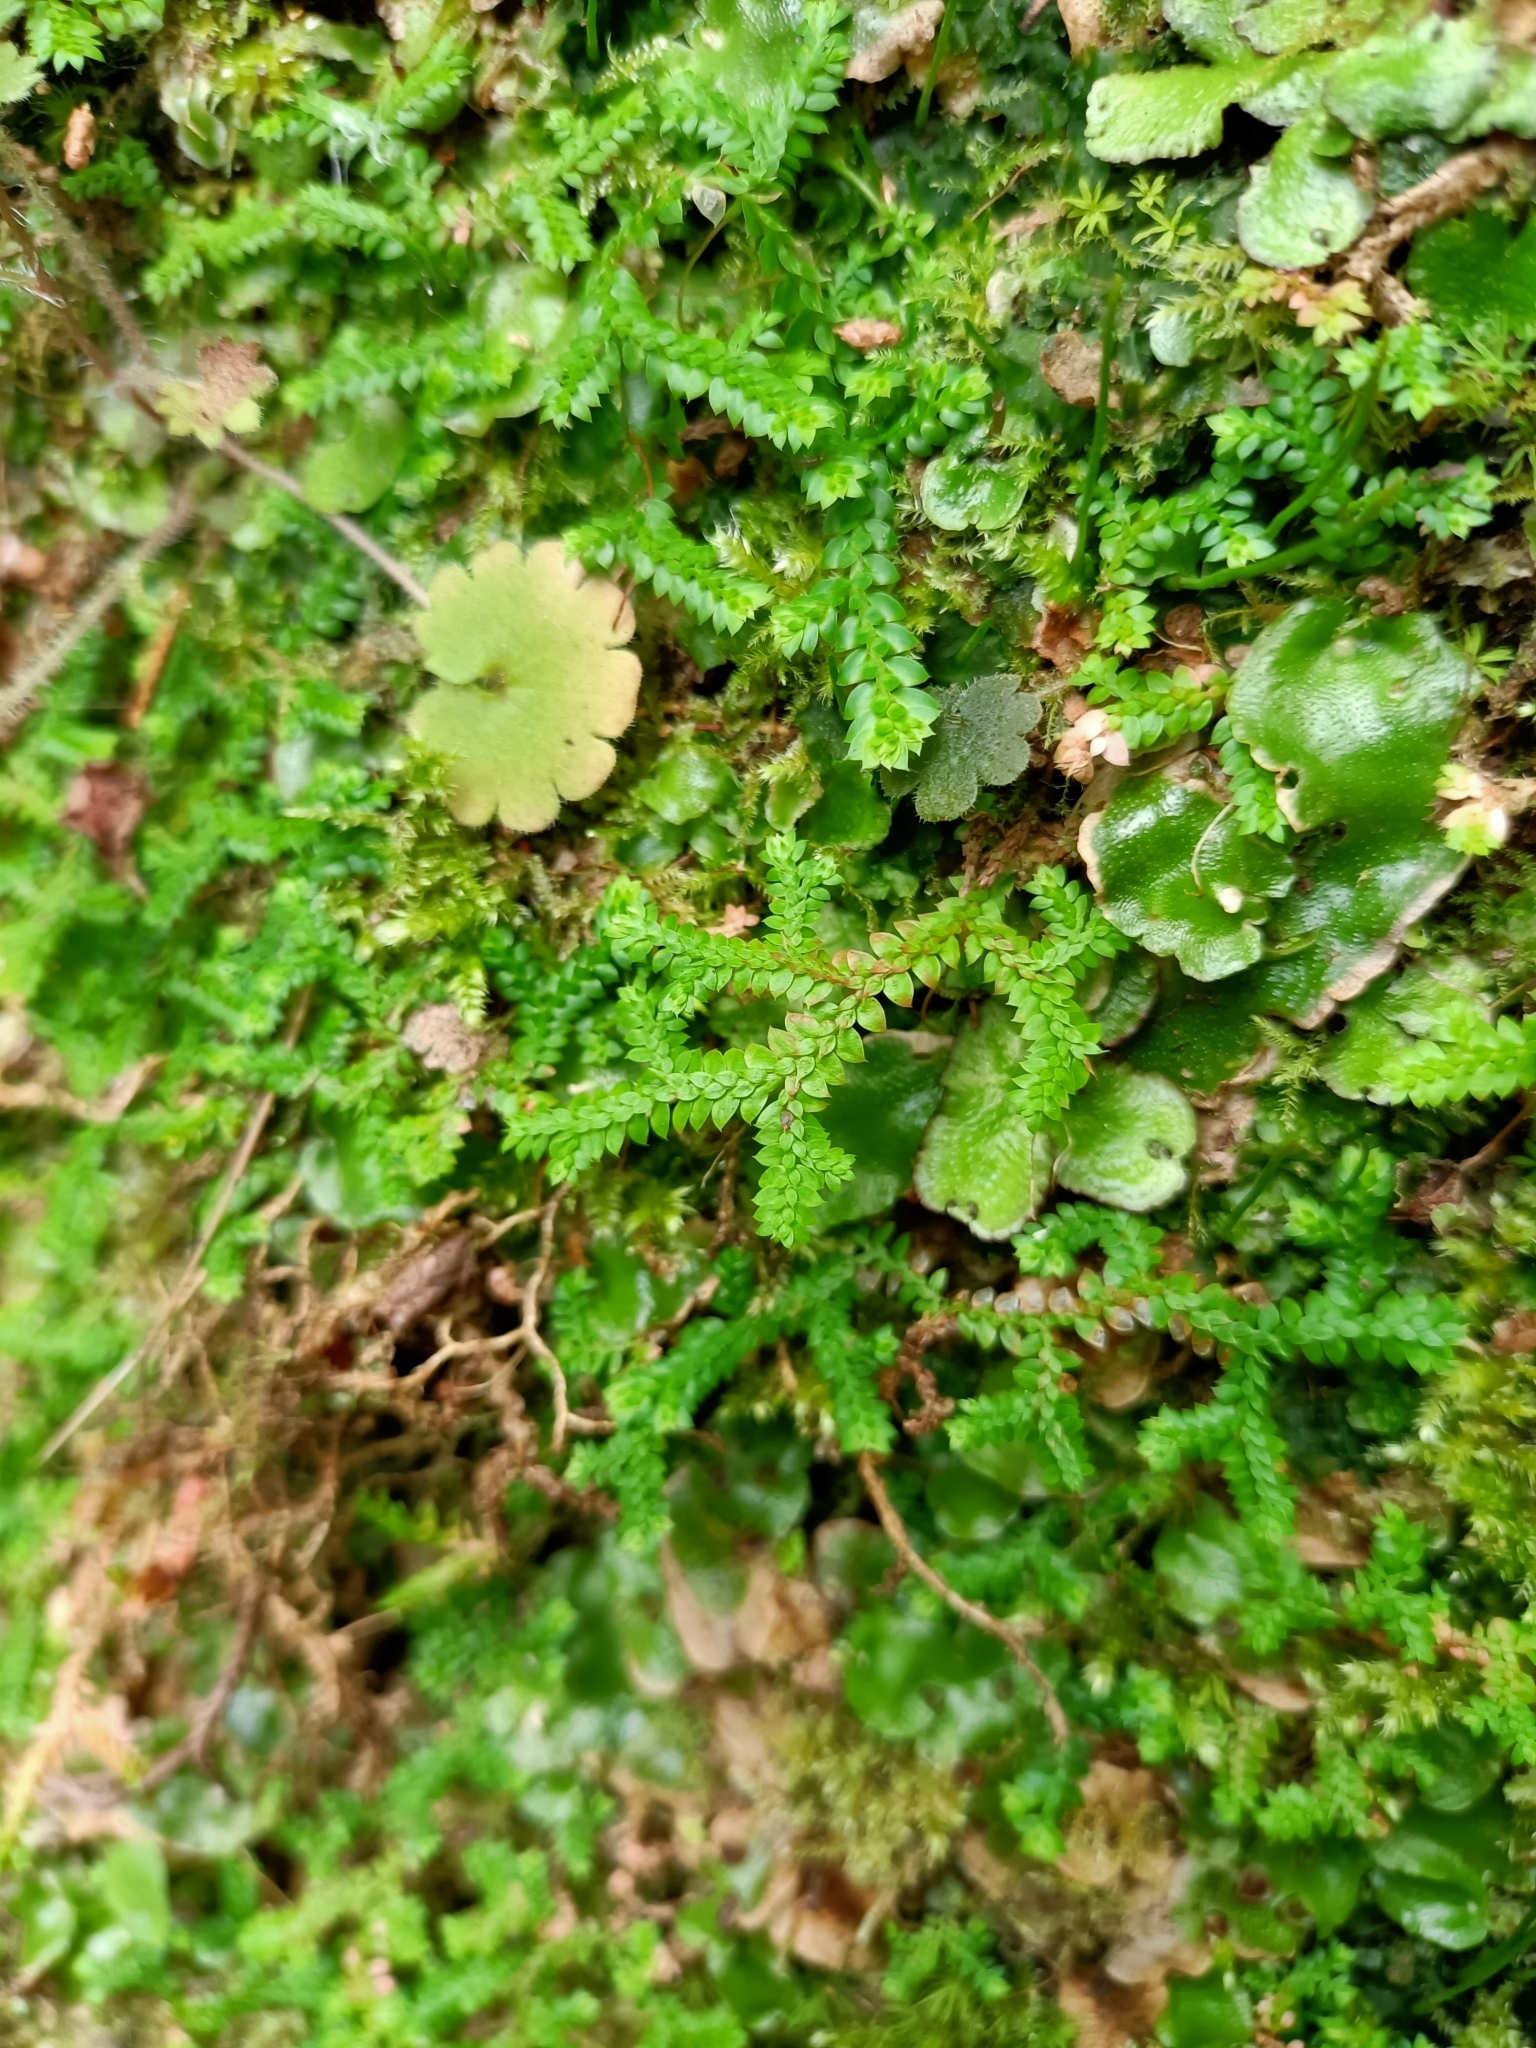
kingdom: Plantae
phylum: Tracheophyta
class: Lycopodiopsida
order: Selaginellales
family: Selaginellaceae
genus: Selaginella
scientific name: Selaginella denticulata
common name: Toothed-leaved clubmoss
